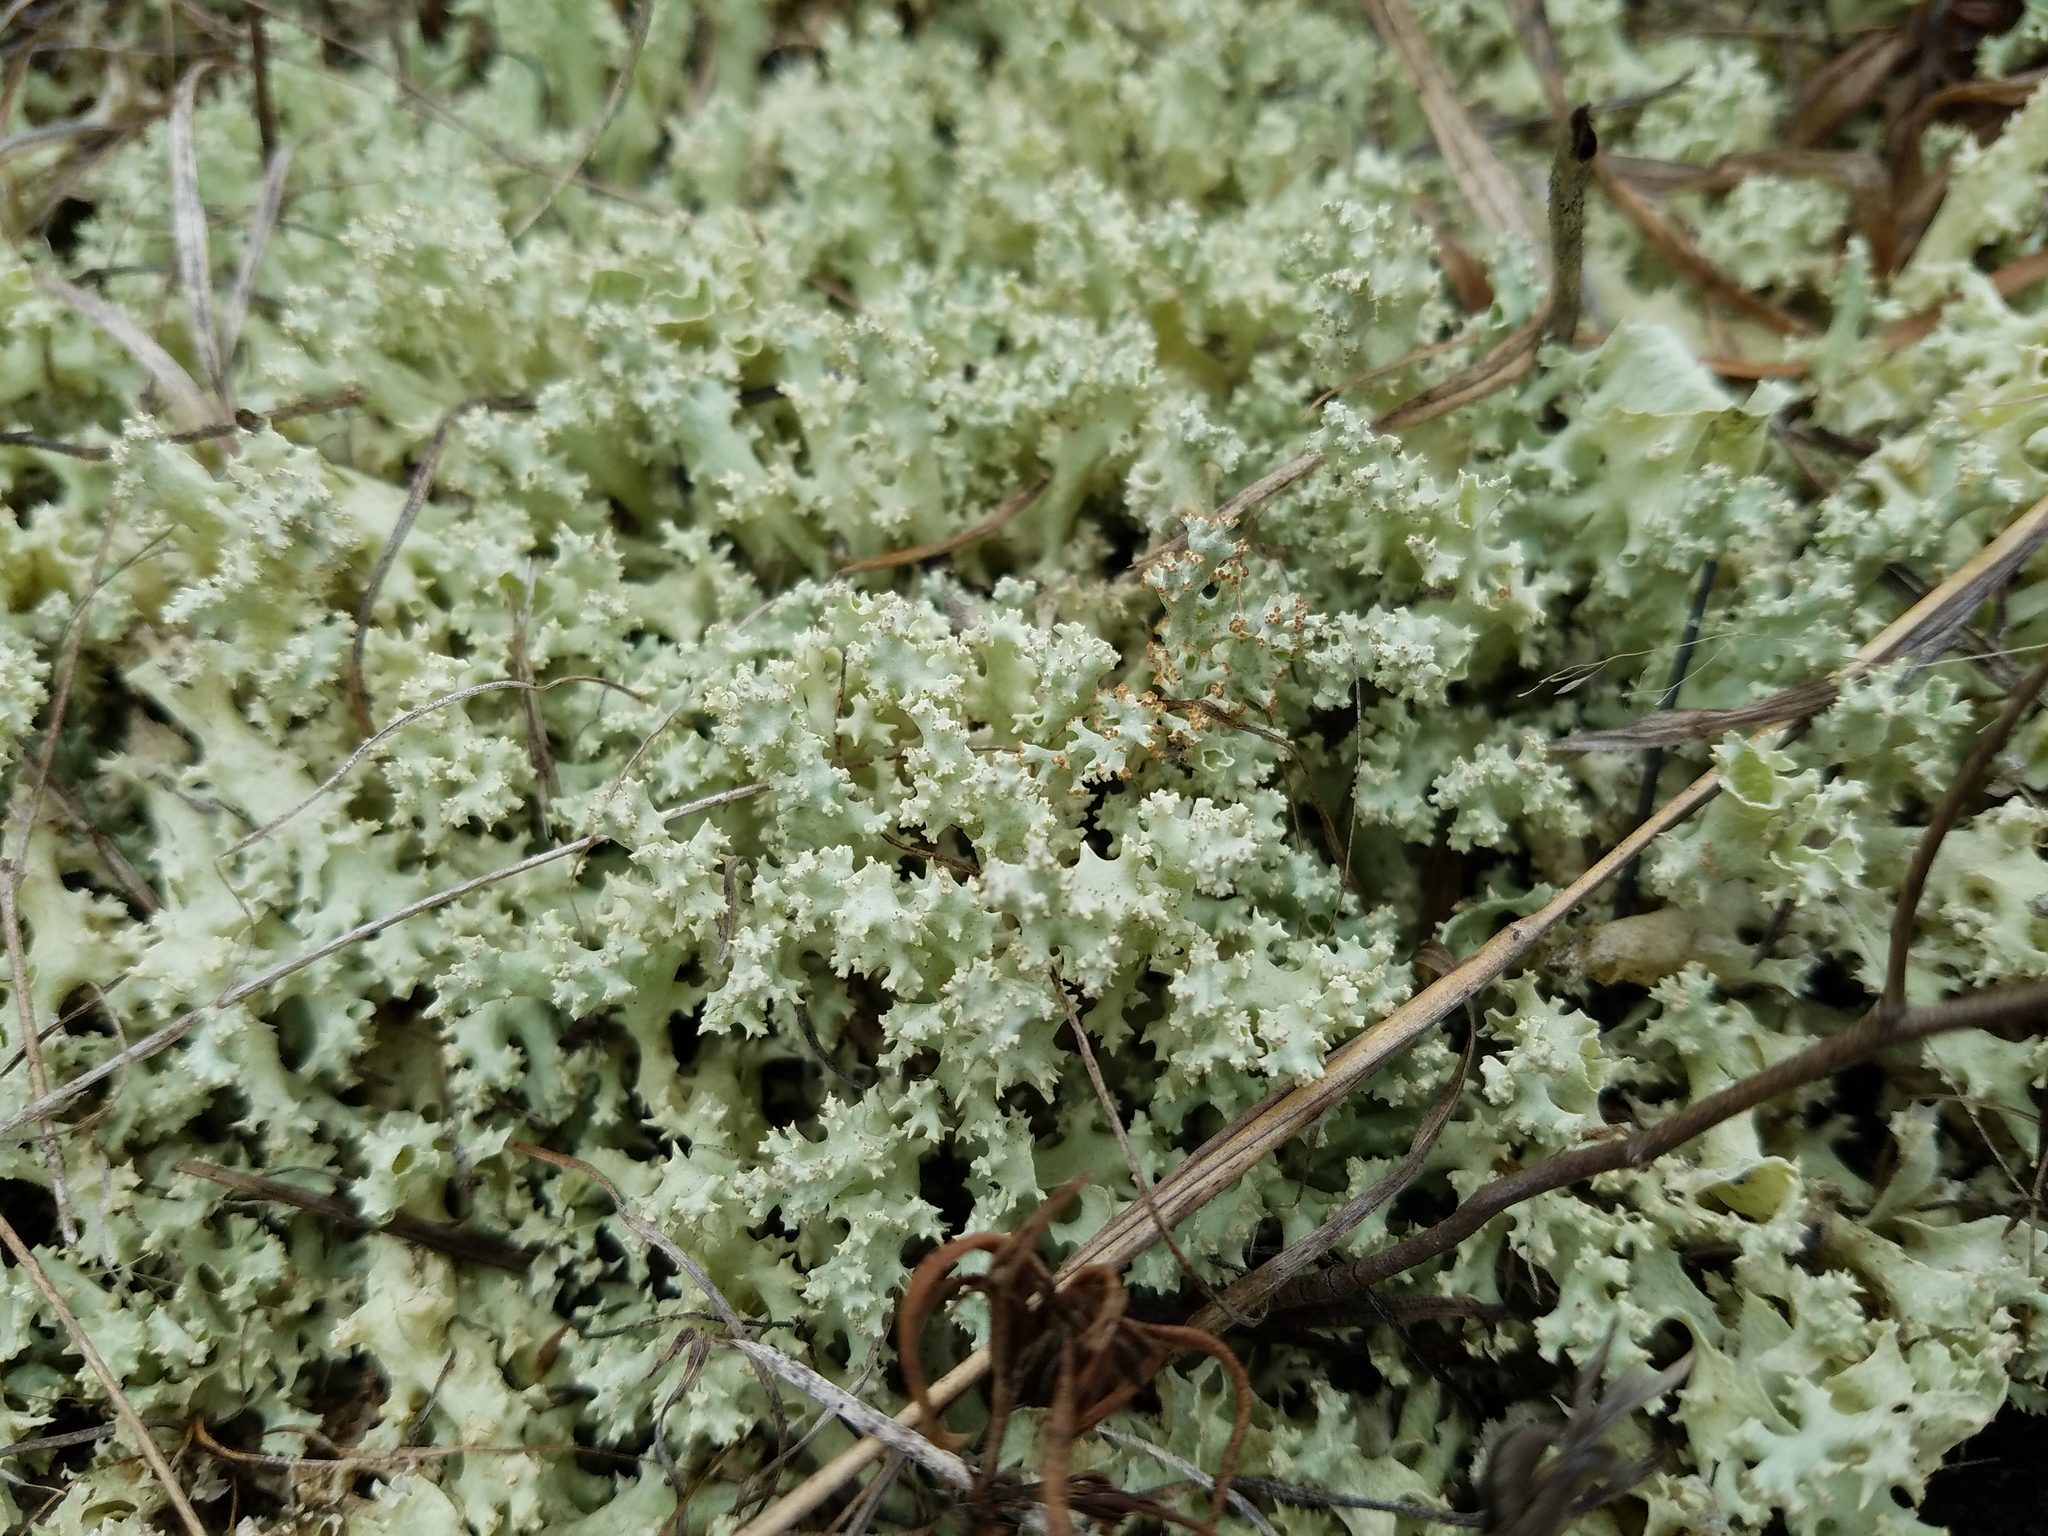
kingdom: Fungi
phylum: Ascomycota
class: Lecanoromycetes
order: Lecanorales
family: Cladoniaceae
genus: Cladonia
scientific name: Cladonia caroliniana
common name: Granite thorn
